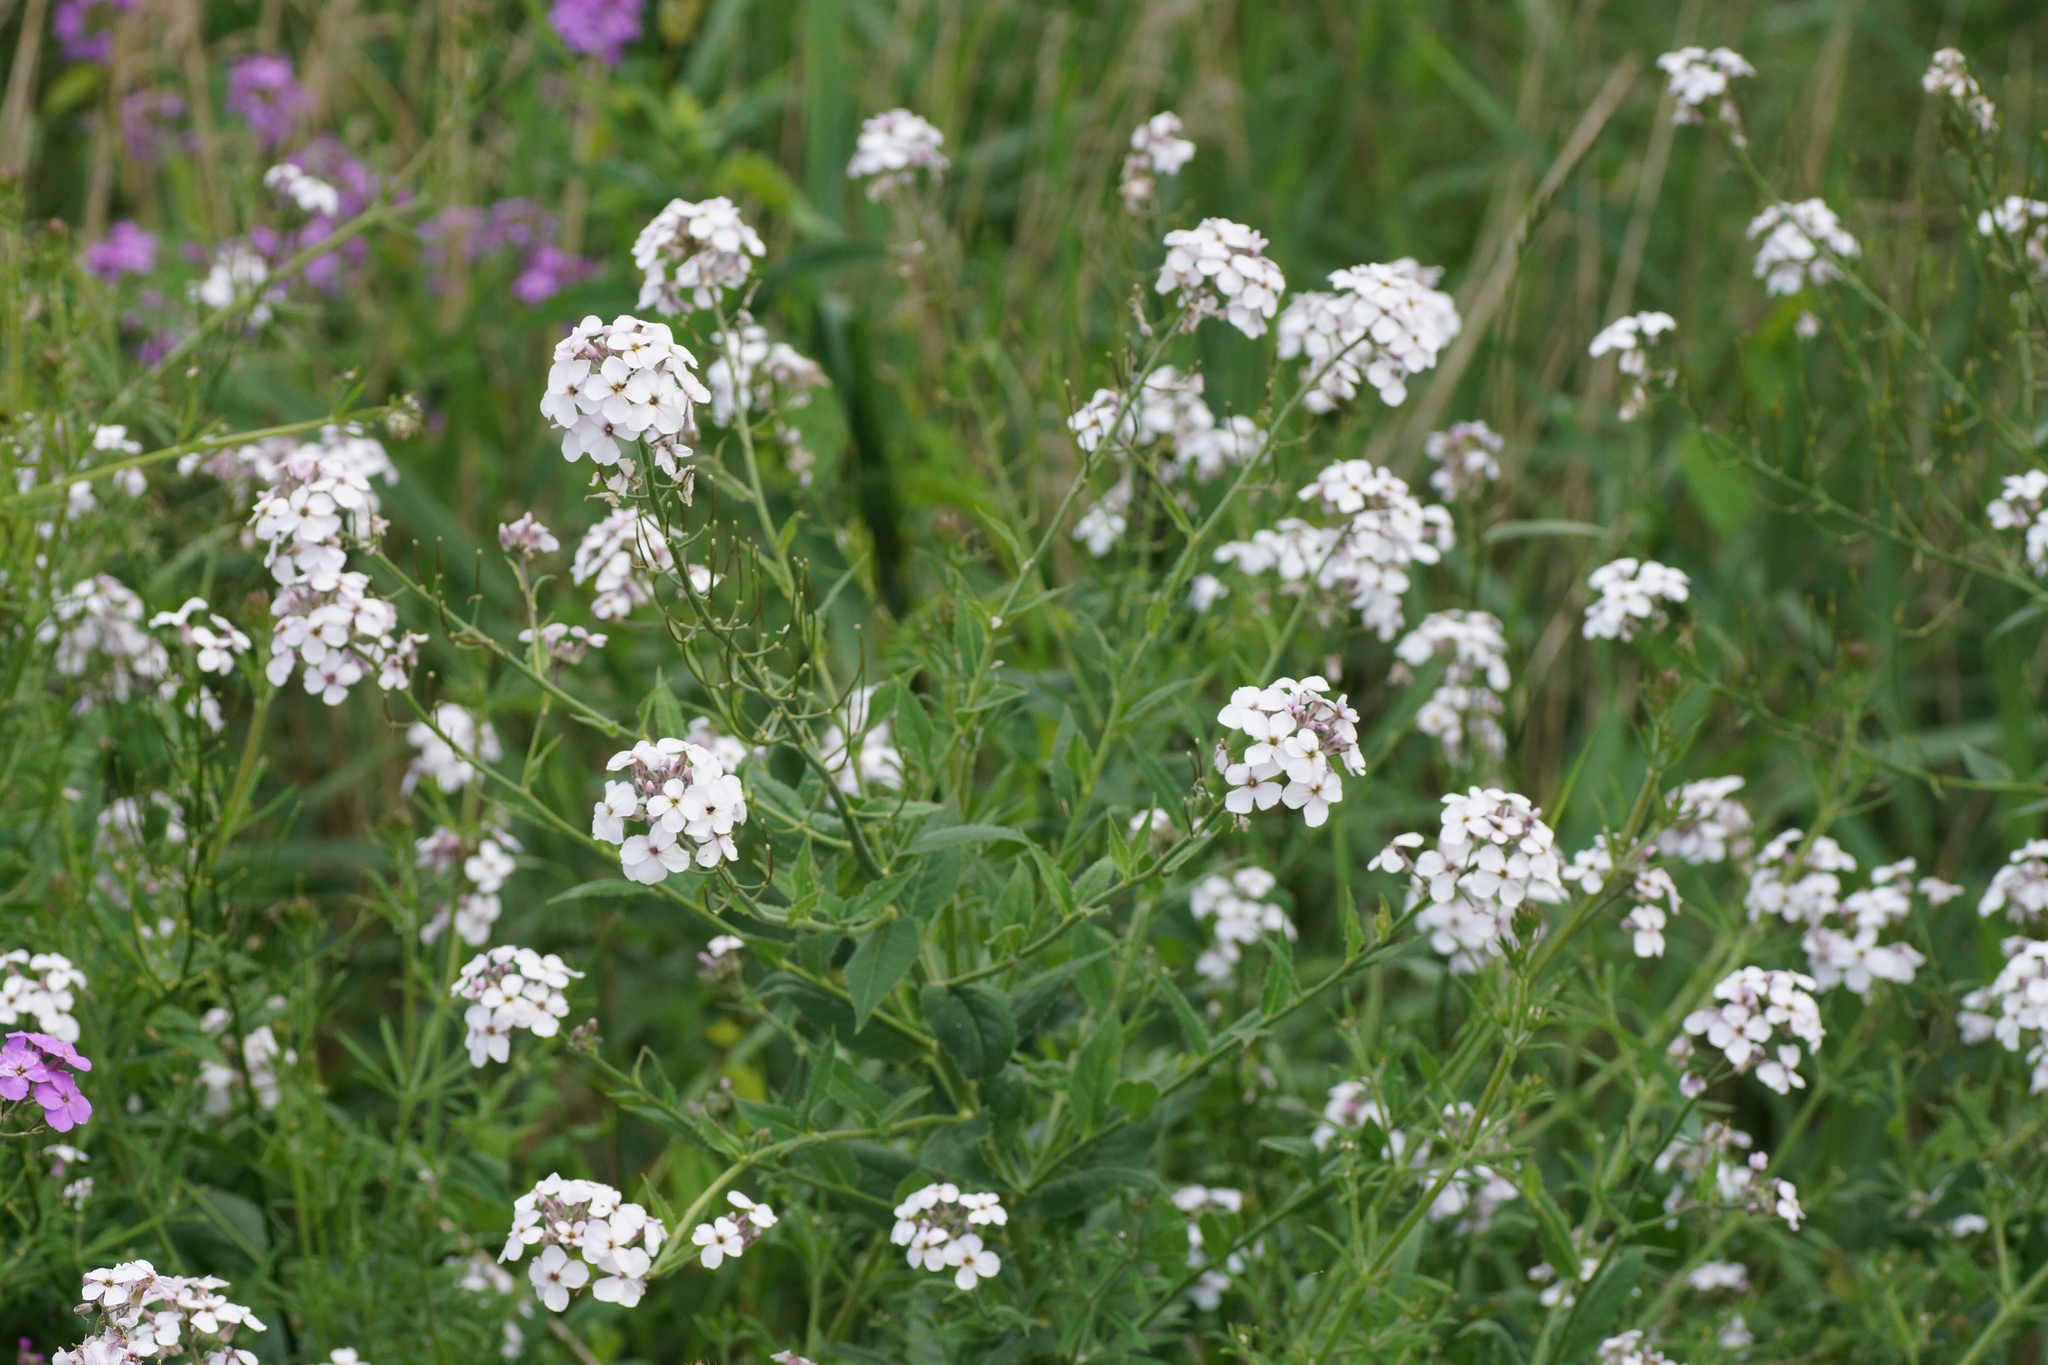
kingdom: Plantae
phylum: Tracheophyta
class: Magnoliopsida
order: Brassicales
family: Brassicaceae
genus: Hesperis
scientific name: Hesperis matronalis
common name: Dame's-violet
